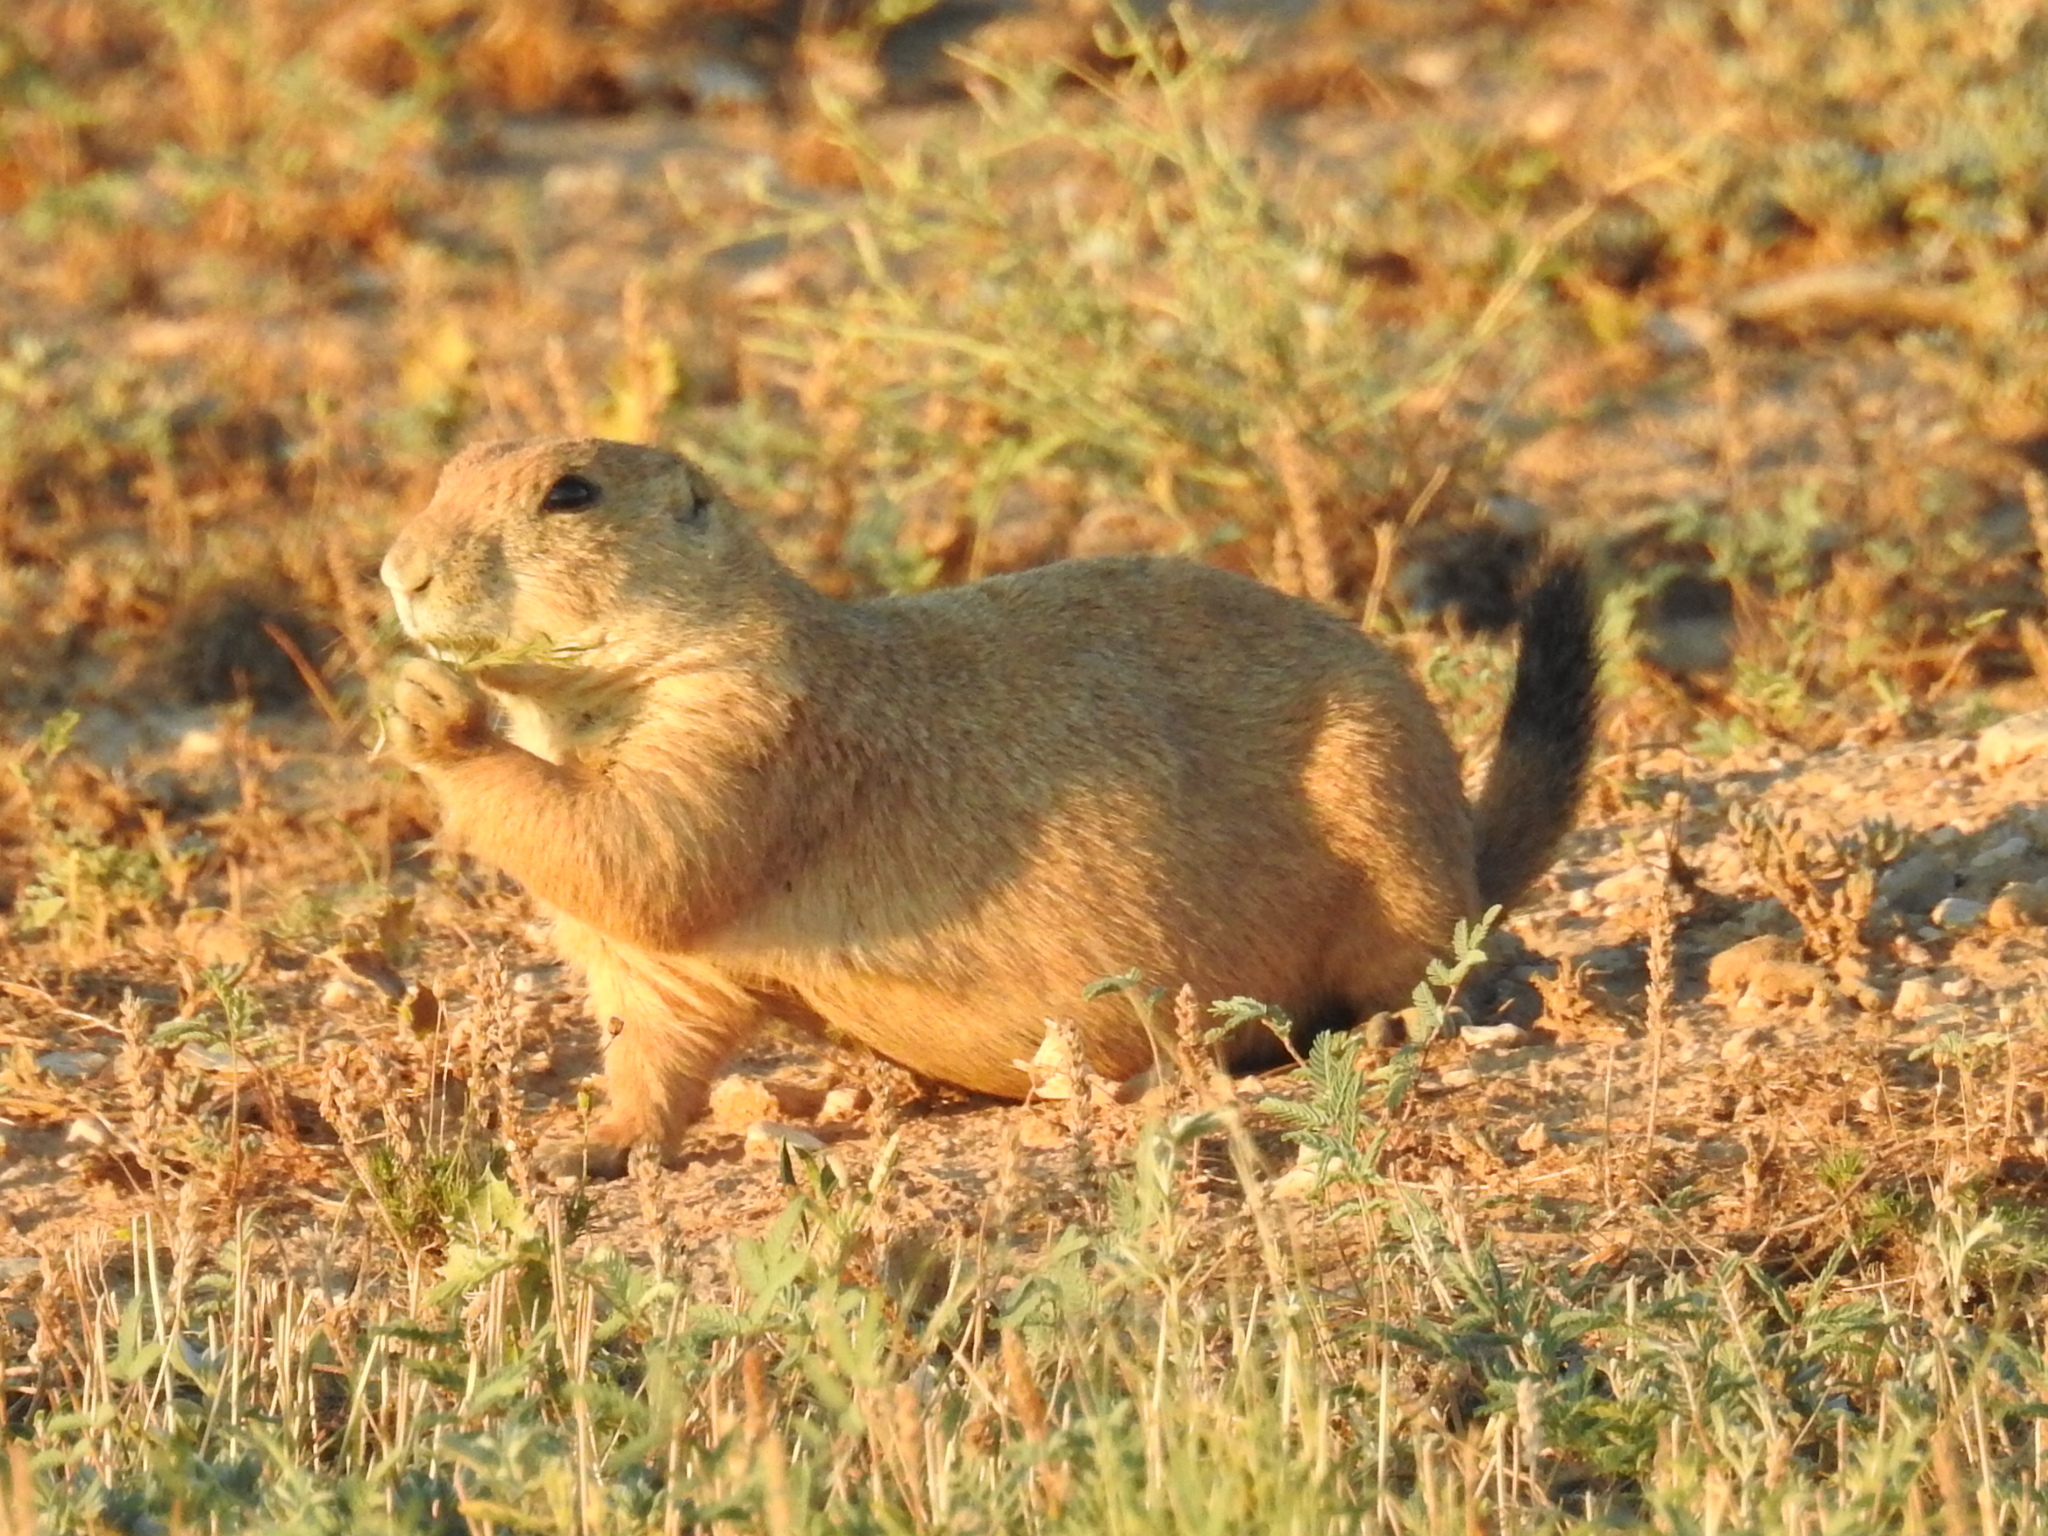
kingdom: Animalia
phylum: Chordata
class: Mammalia
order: Rodentia
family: Sciuridae
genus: Cynomys
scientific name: Cynomys ludovicianus
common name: Black-tailed prairie dog
